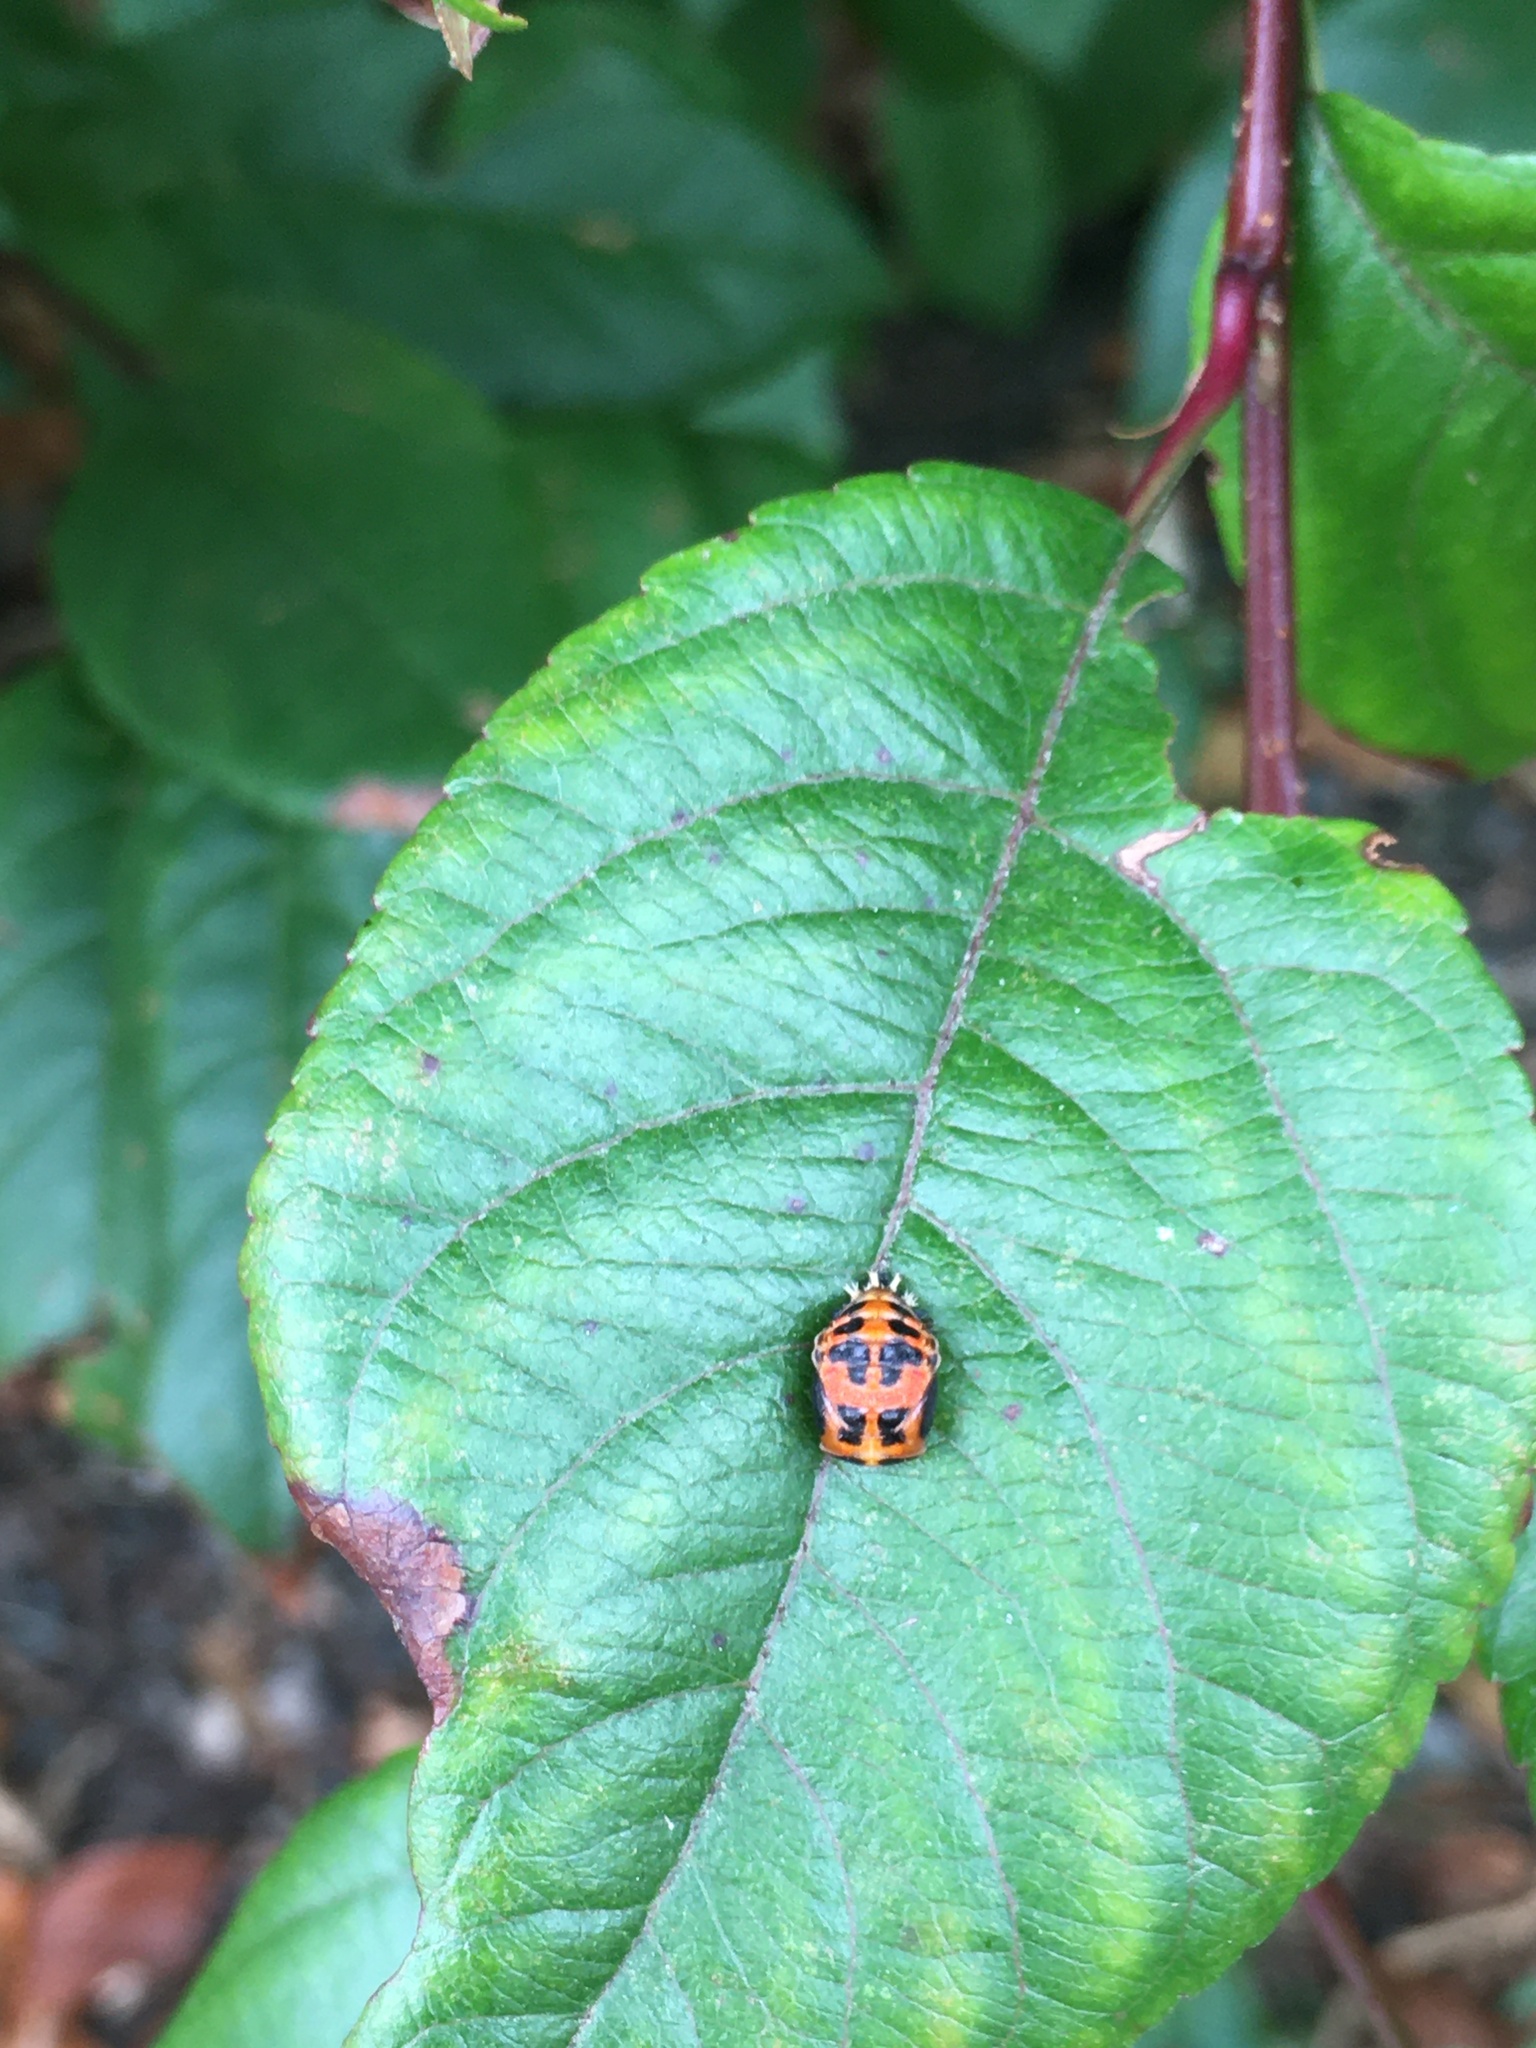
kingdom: Animalia
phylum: Arthropoda
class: Insecta
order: Coleoptera
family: Coccinellidae
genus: Harmonia
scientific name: Harmonia axyridis
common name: Harlequin ladybird
